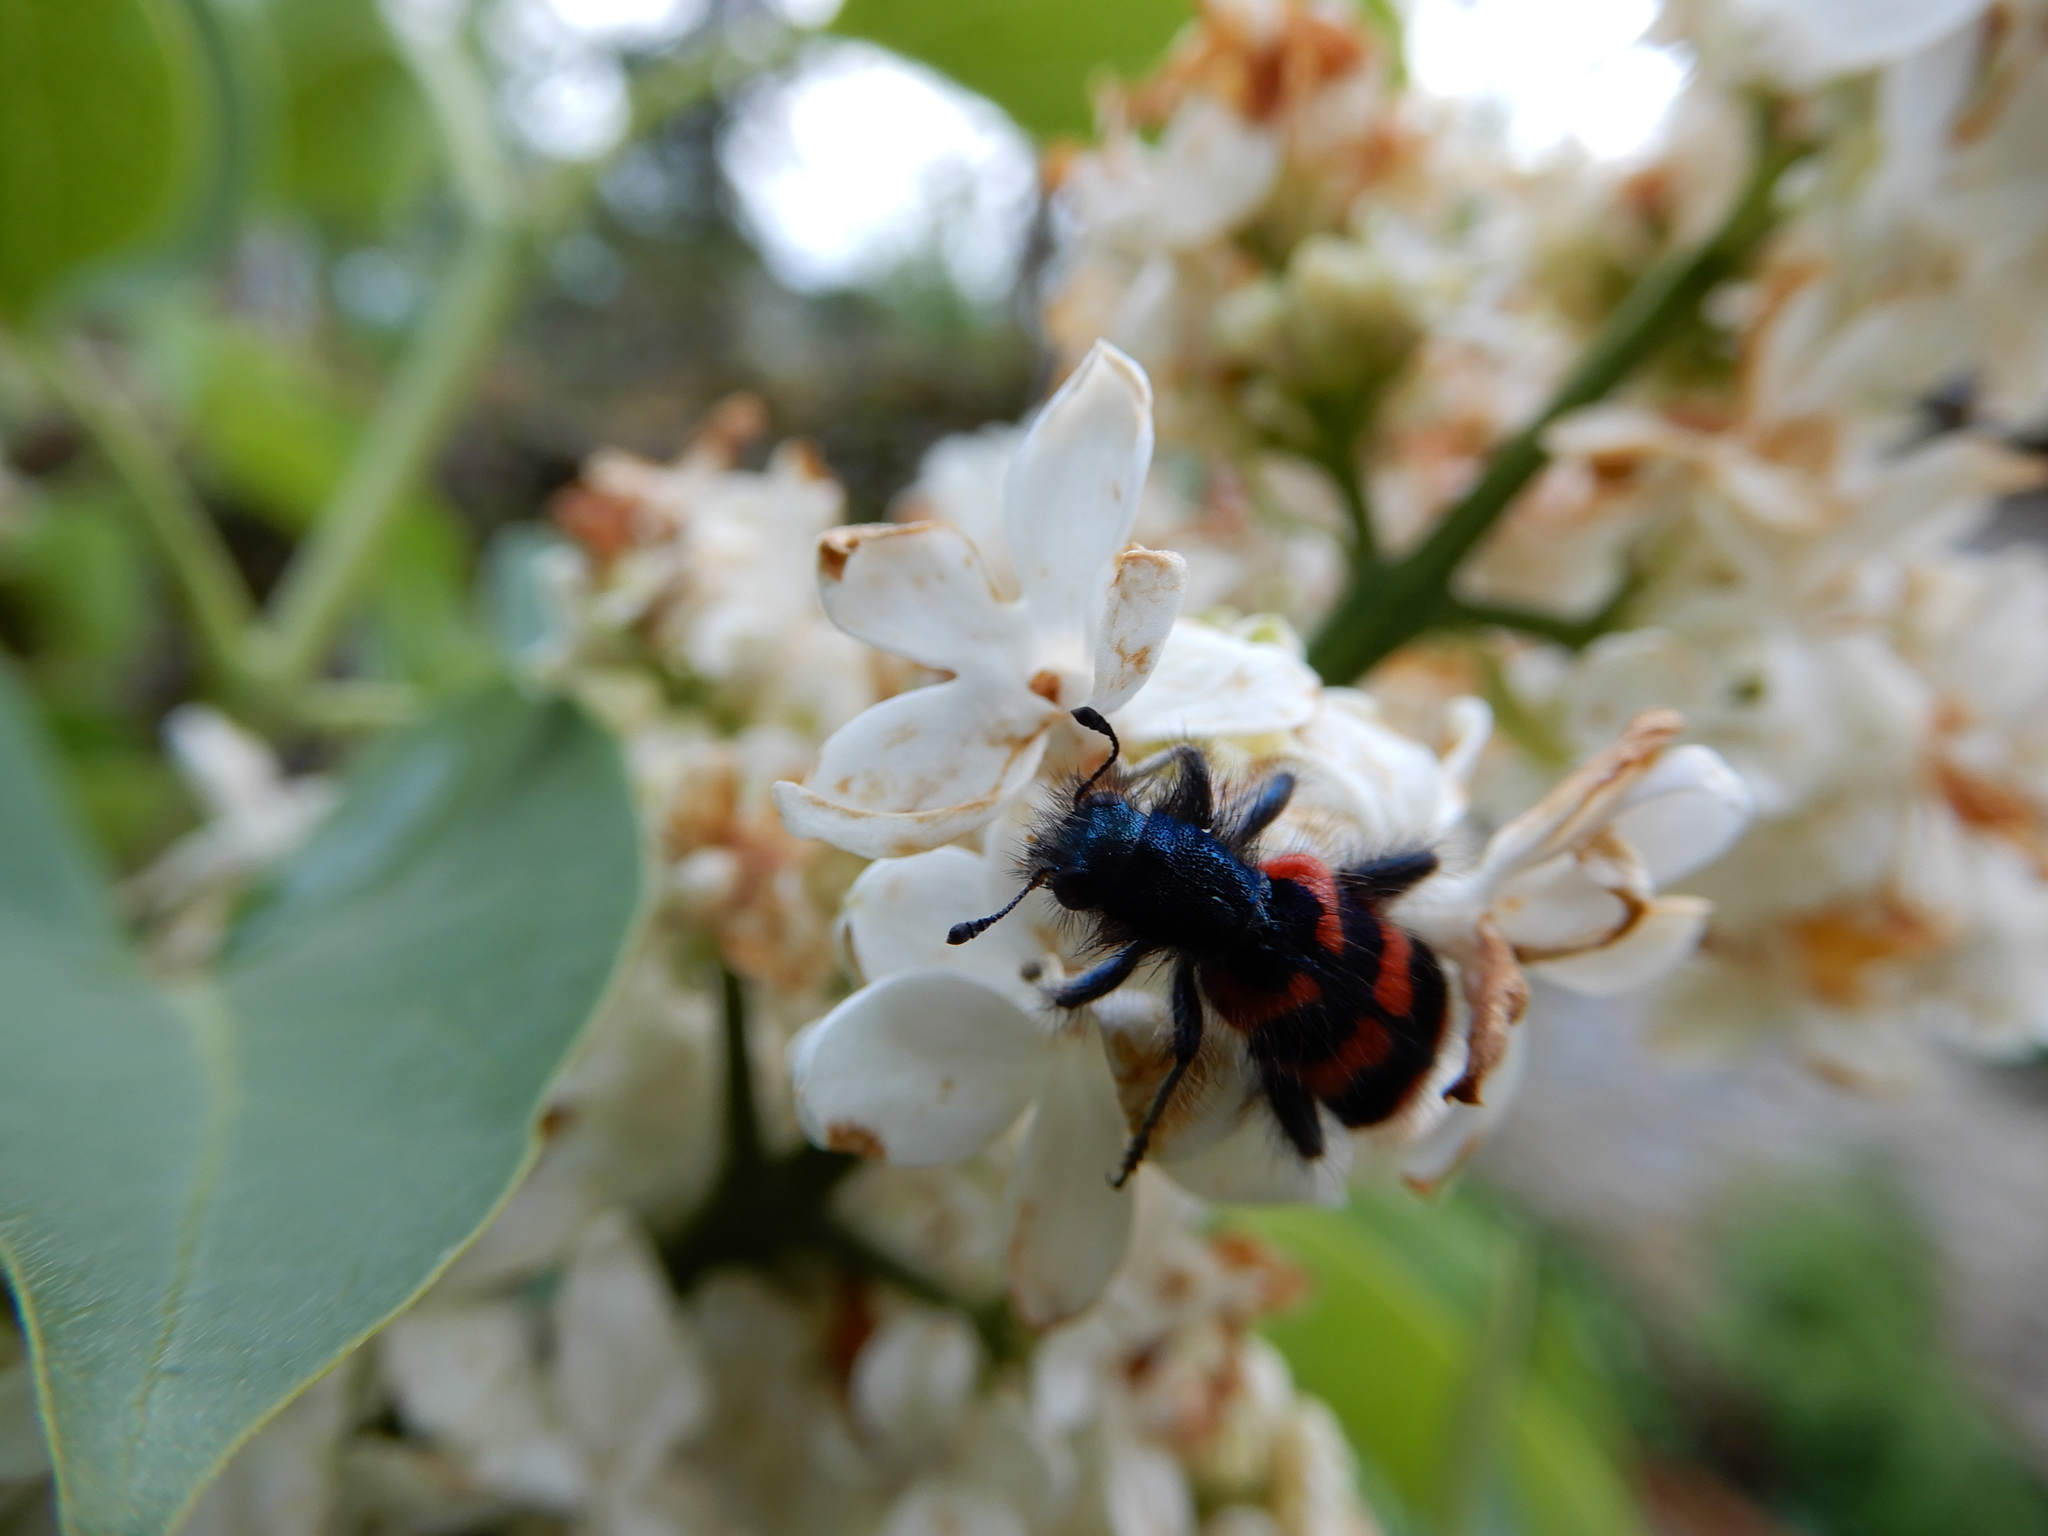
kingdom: Animalia
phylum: Arthropoda
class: Insecta
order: Coleoptera
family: Cleridae
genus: Trichodes
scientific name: Trichodes alvearius
